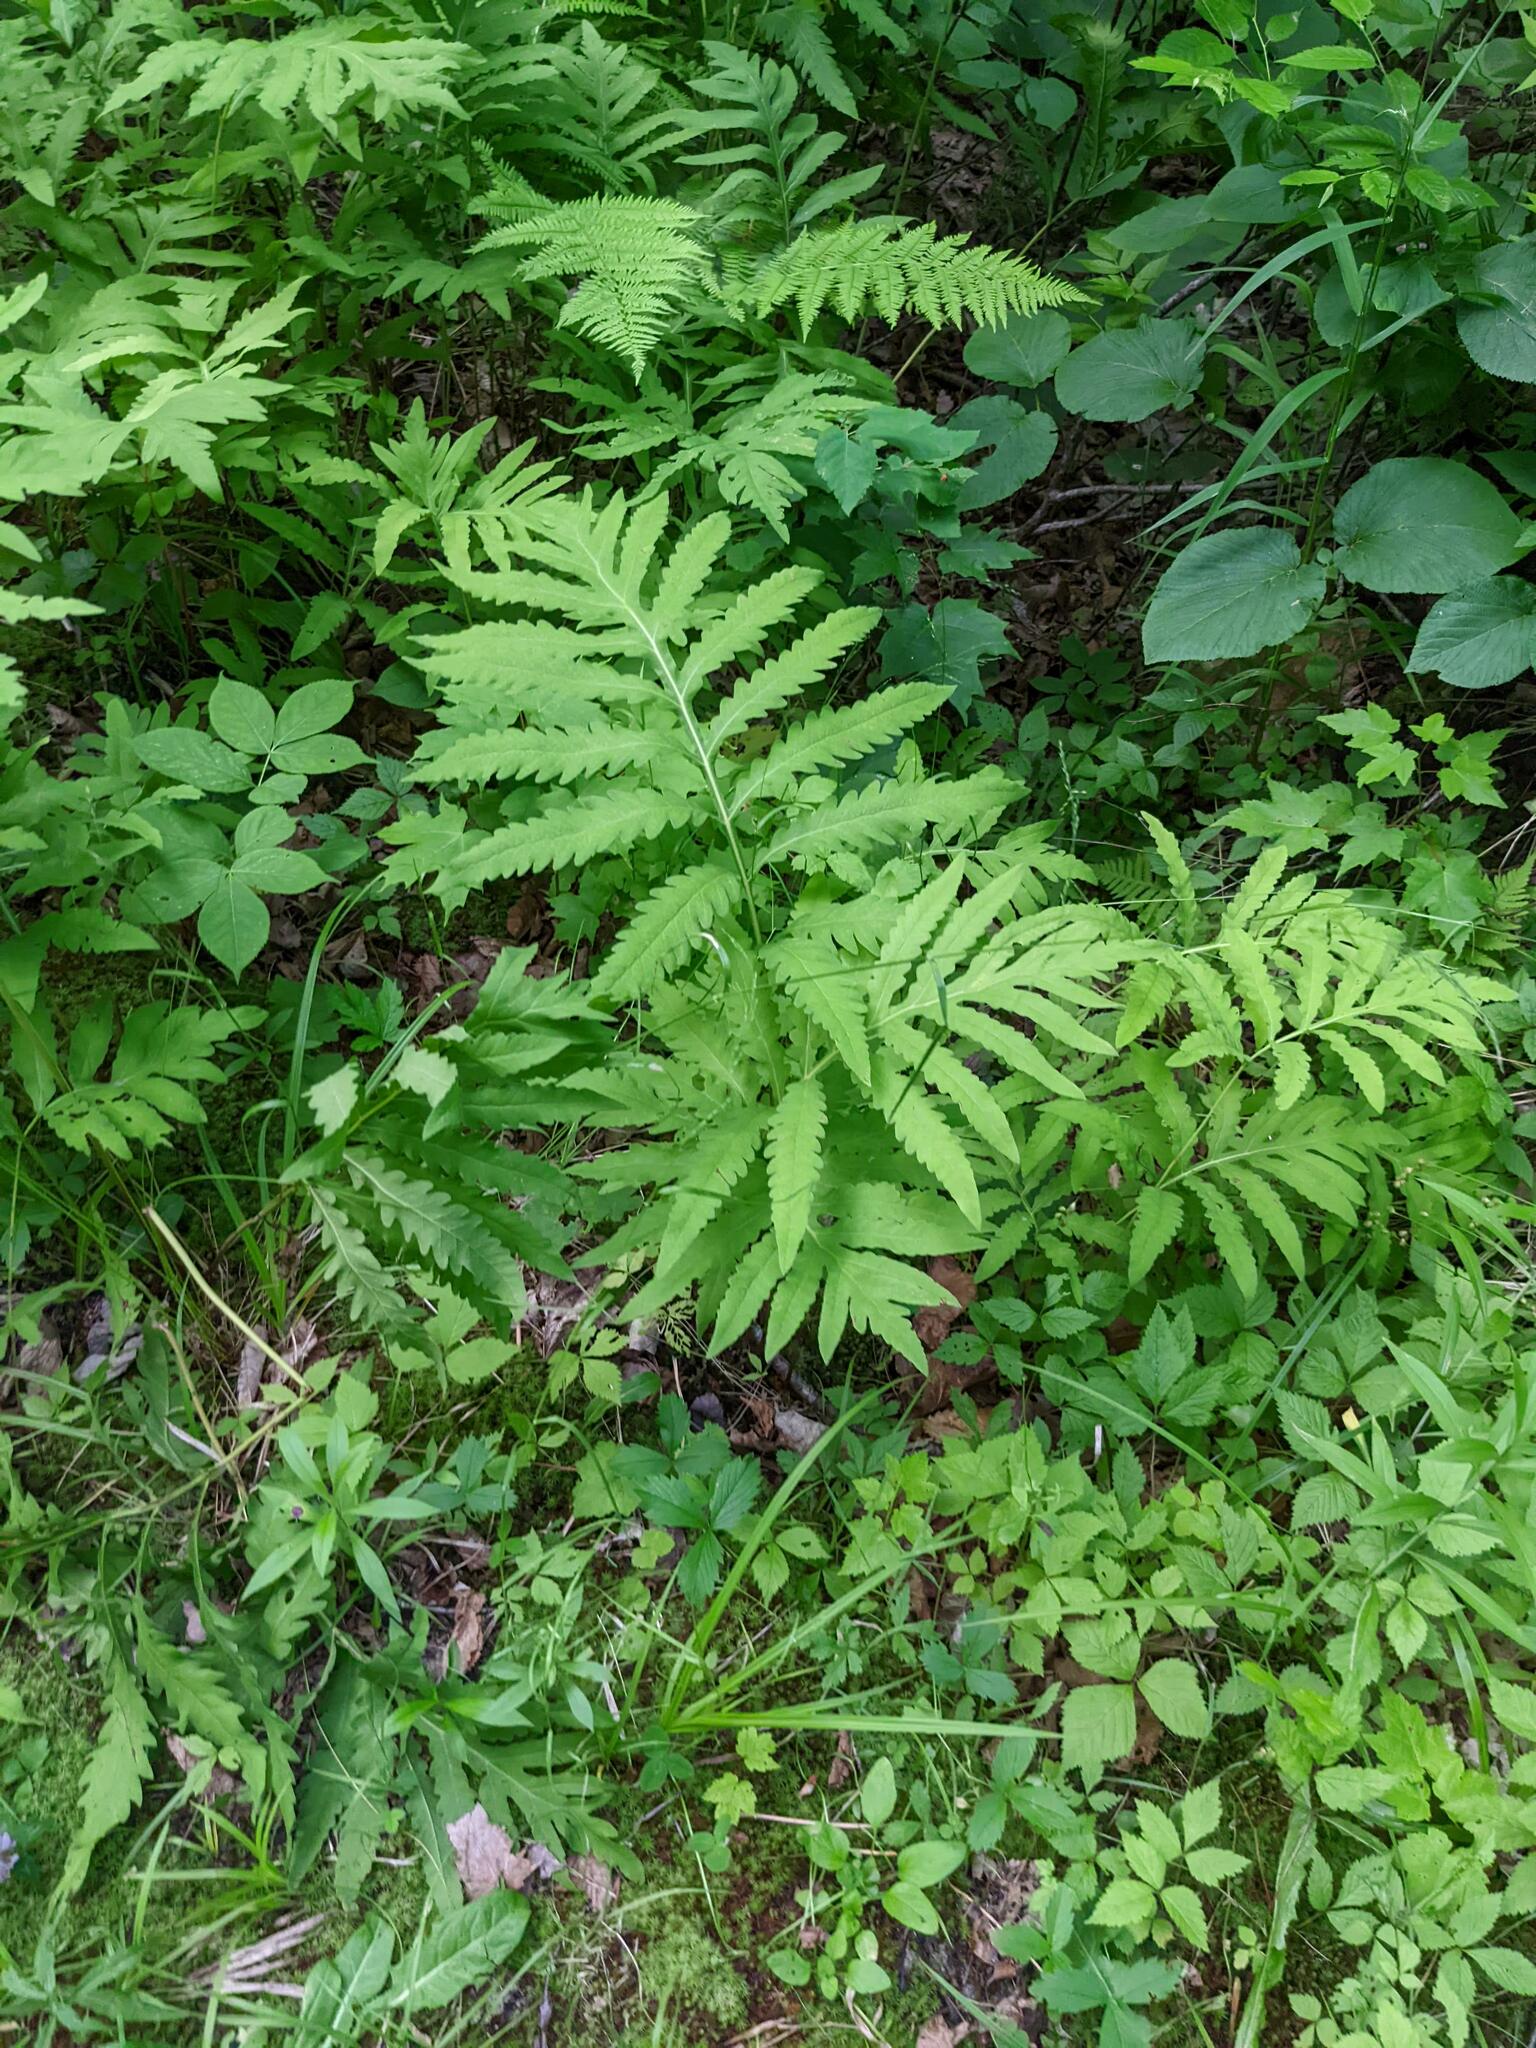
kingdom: Plantae
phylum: Tracheophyta
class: Polypodiopsida
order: Polypodiales
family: Onocleaceae
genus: Onoclea
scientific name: Onoclea sensibilis
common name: Sensitive fern
